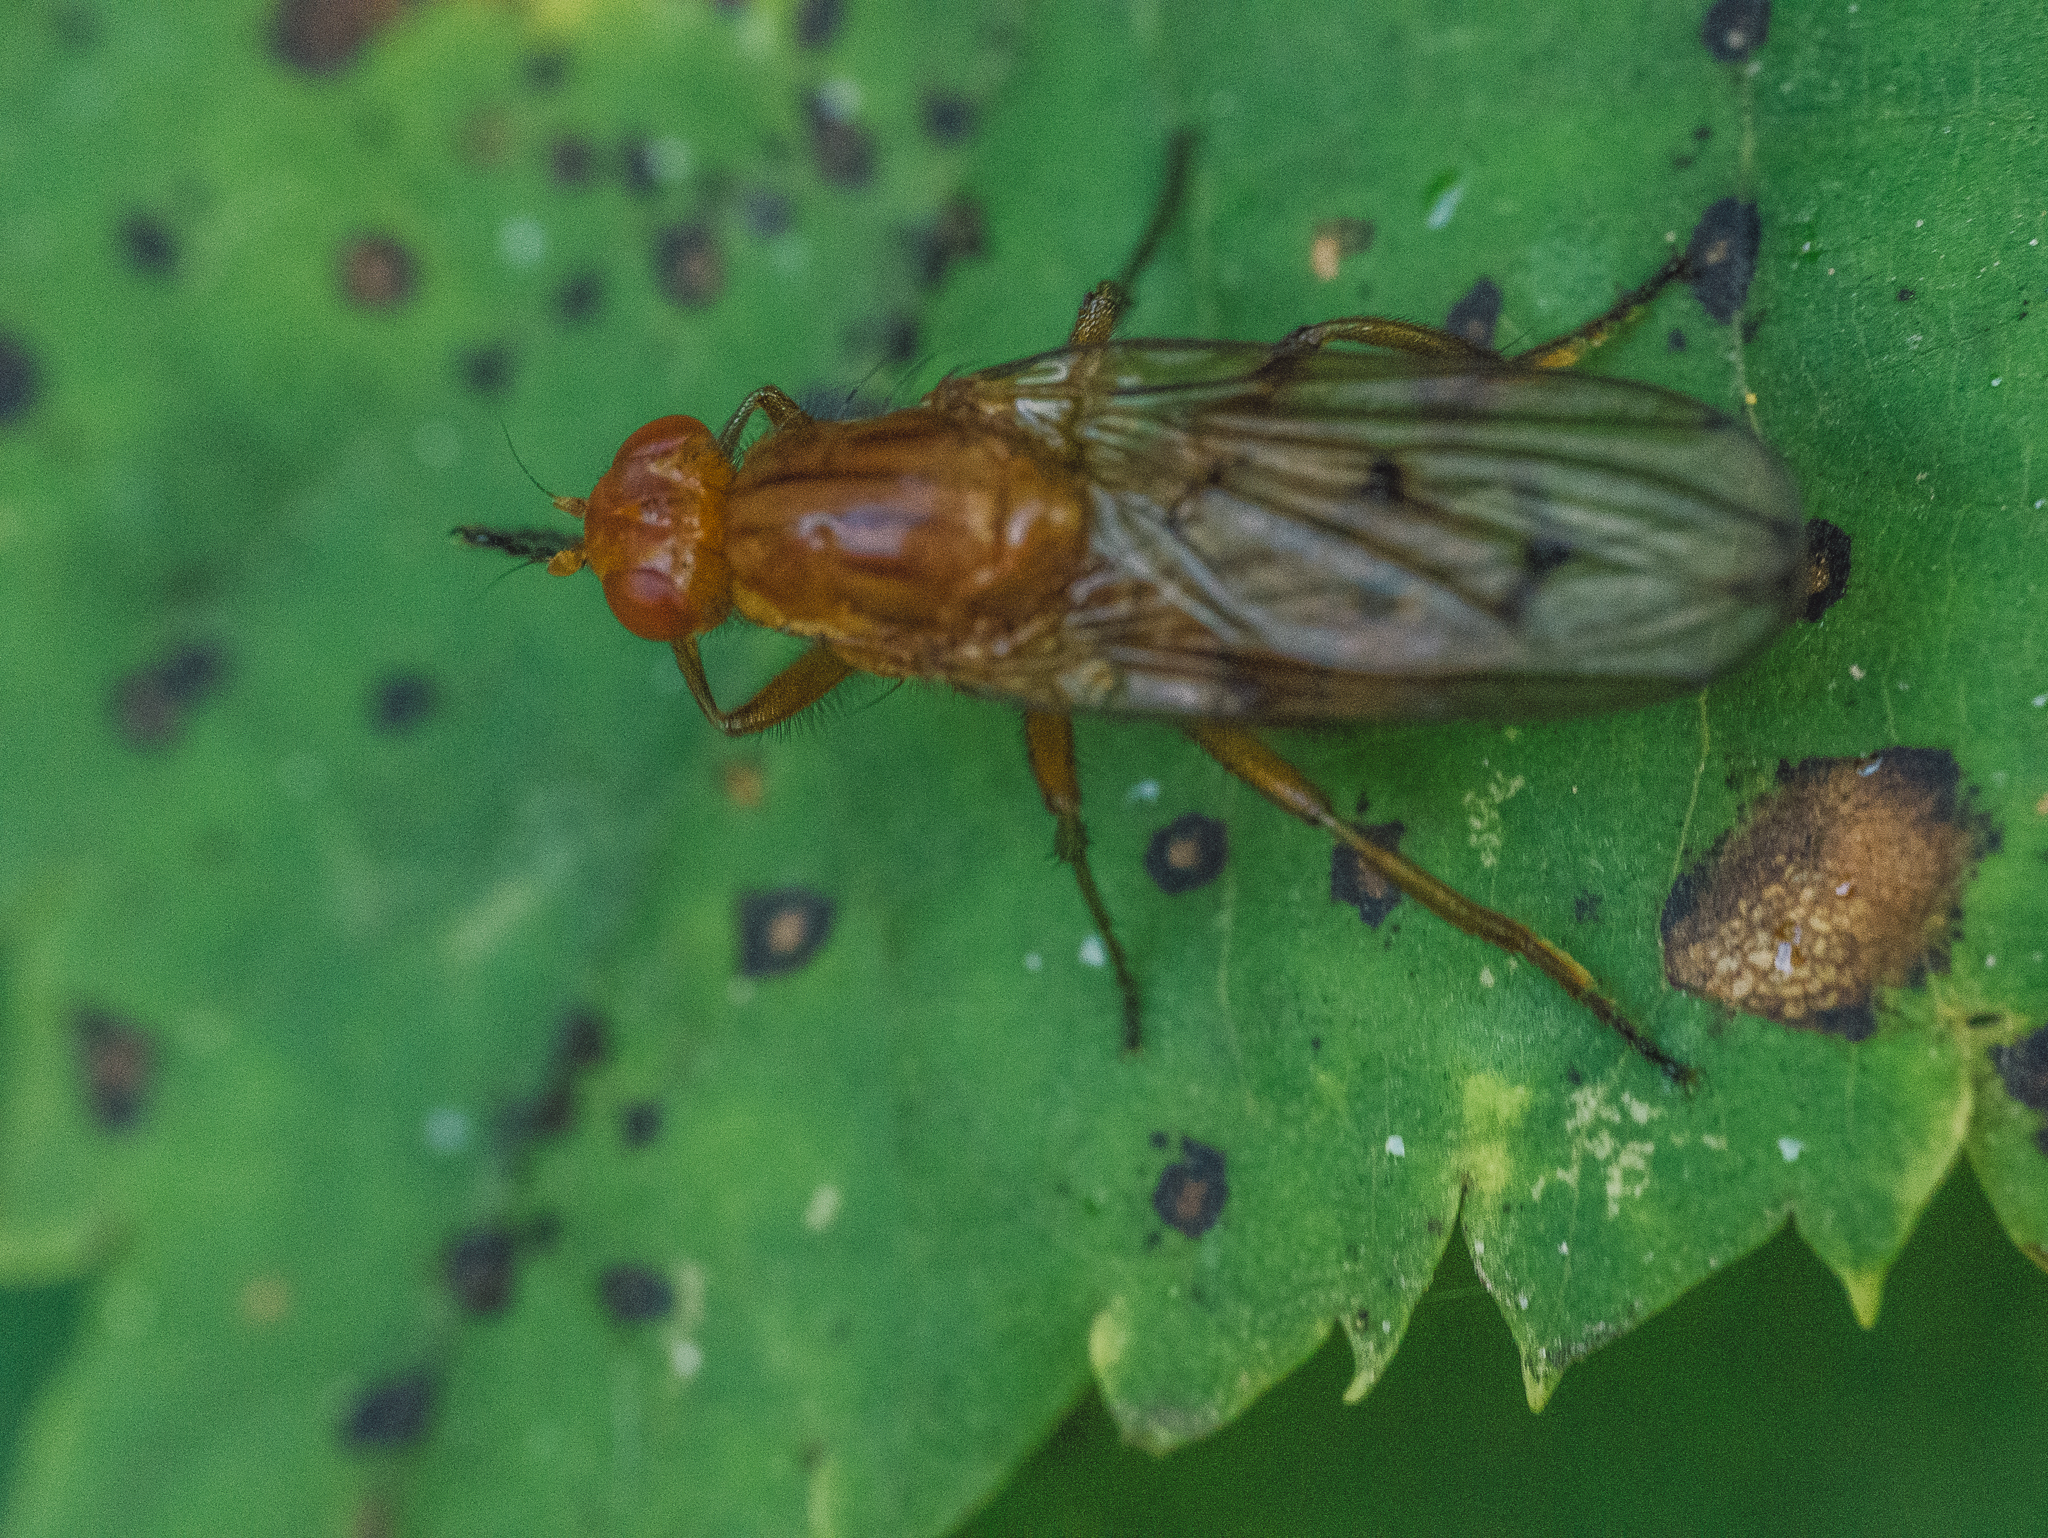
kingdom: Animalia
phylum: Arthropoda
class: Insecta
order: Diptera
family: Dryomyzidae
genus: Dryomyza
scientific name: Dryomyza anilis
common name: Marsh fly
